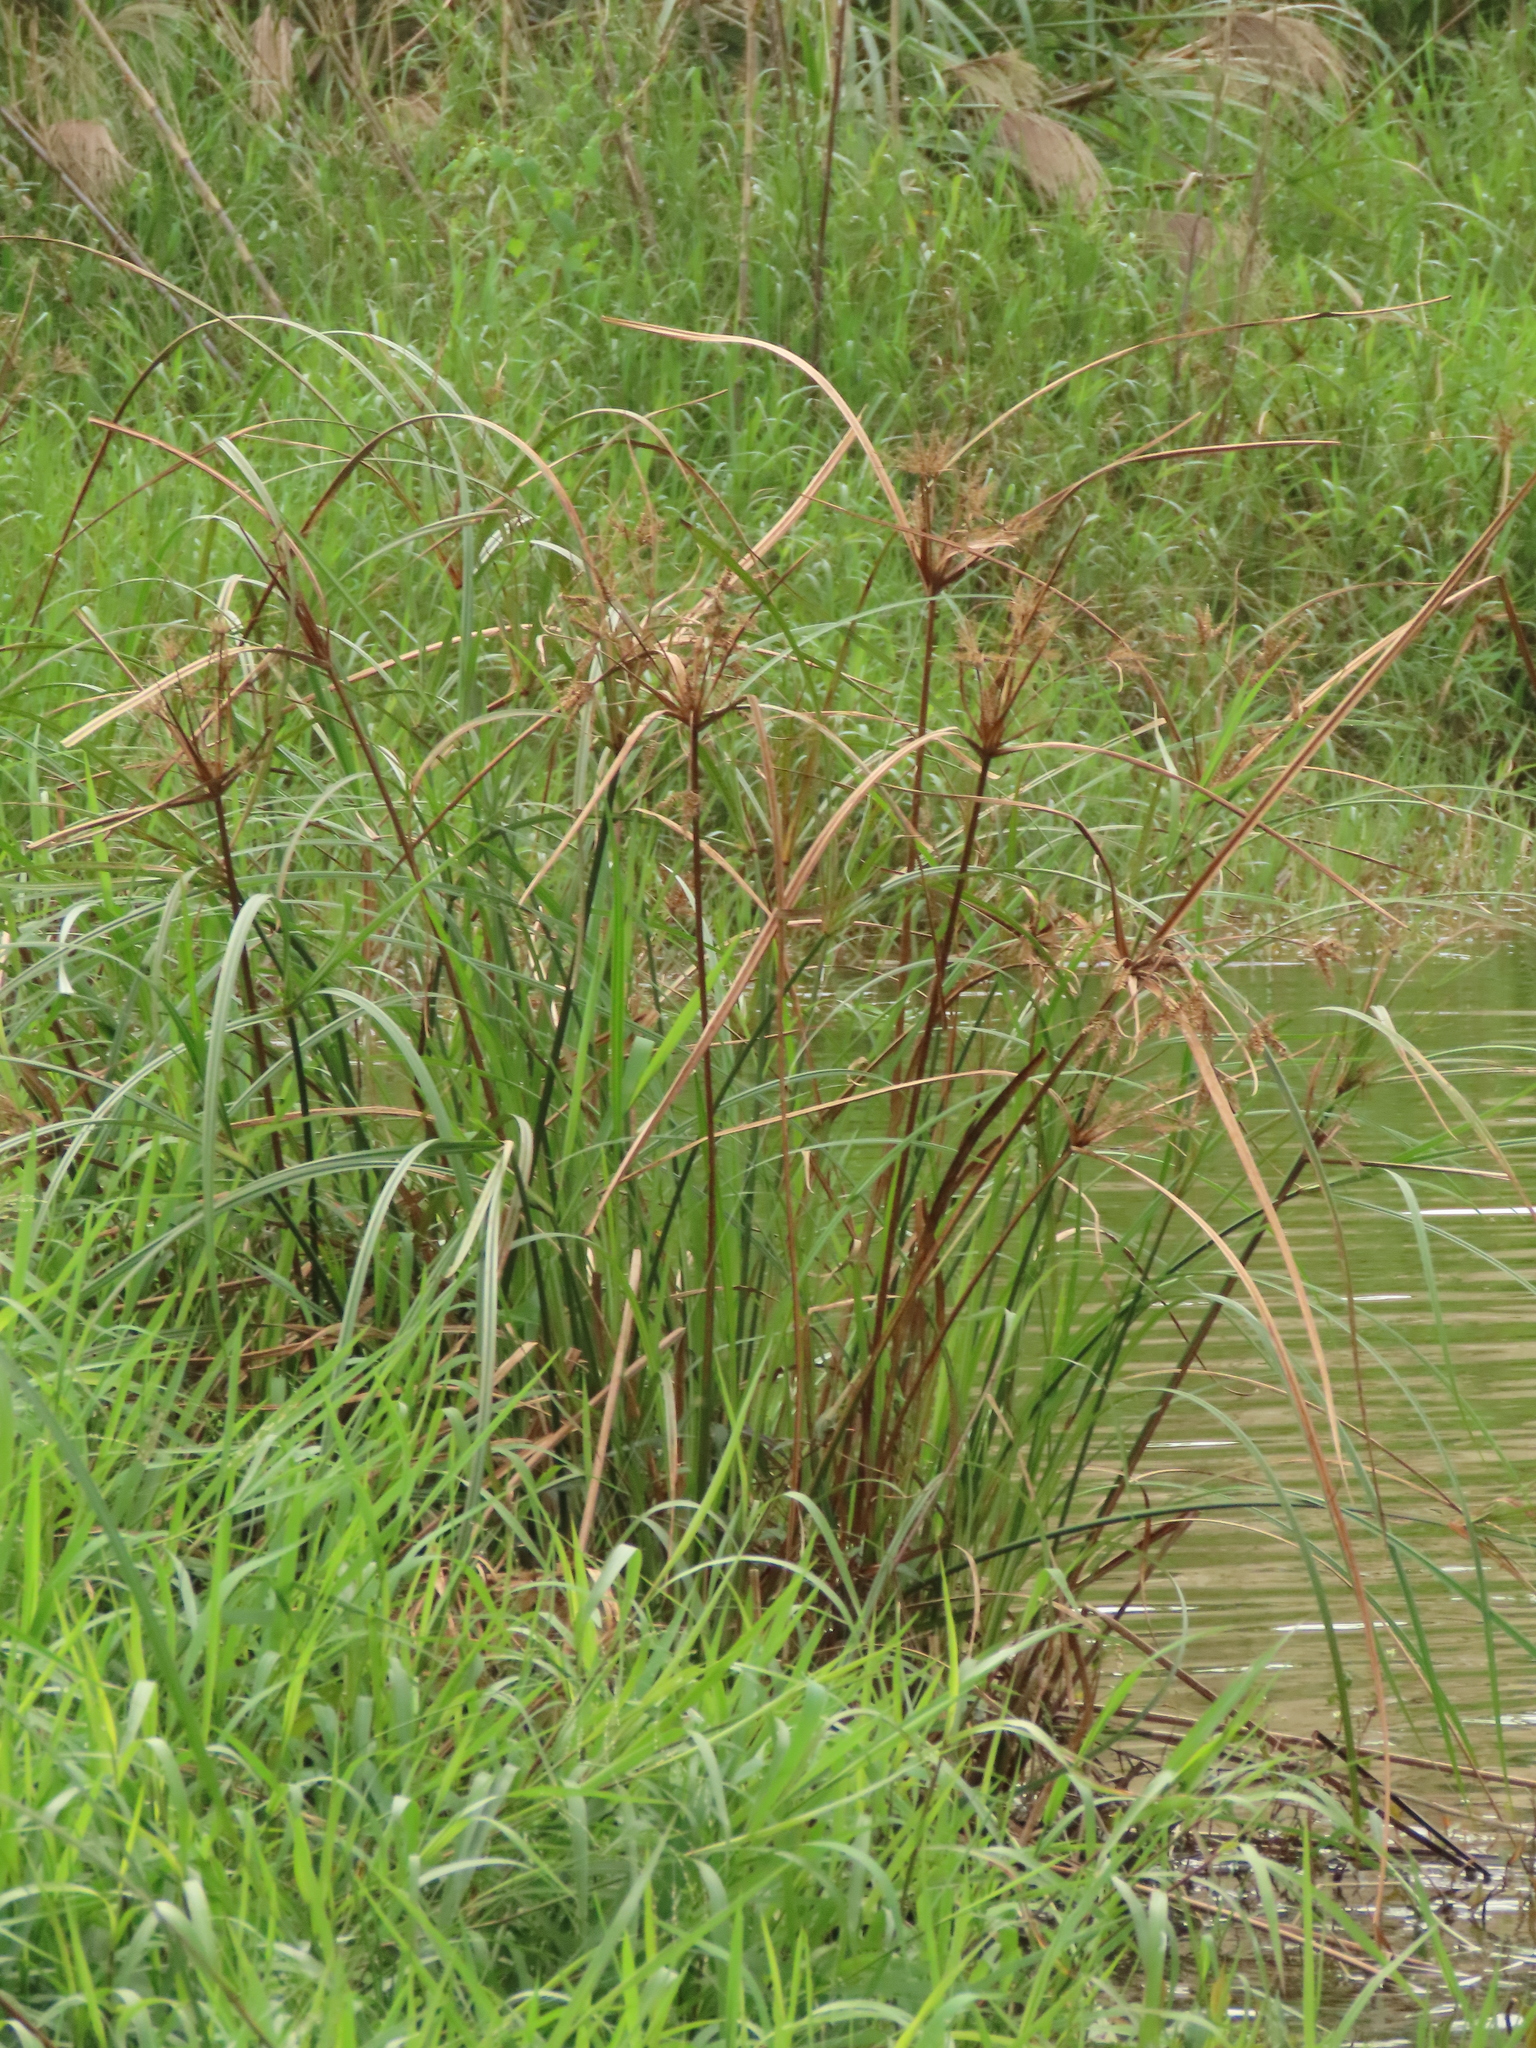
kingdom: Plantae
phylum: Tracheophyta
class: Liliopsida
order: Poales
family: Cyperaceae
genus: Cyperus
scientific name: Cyperus exaltatus
